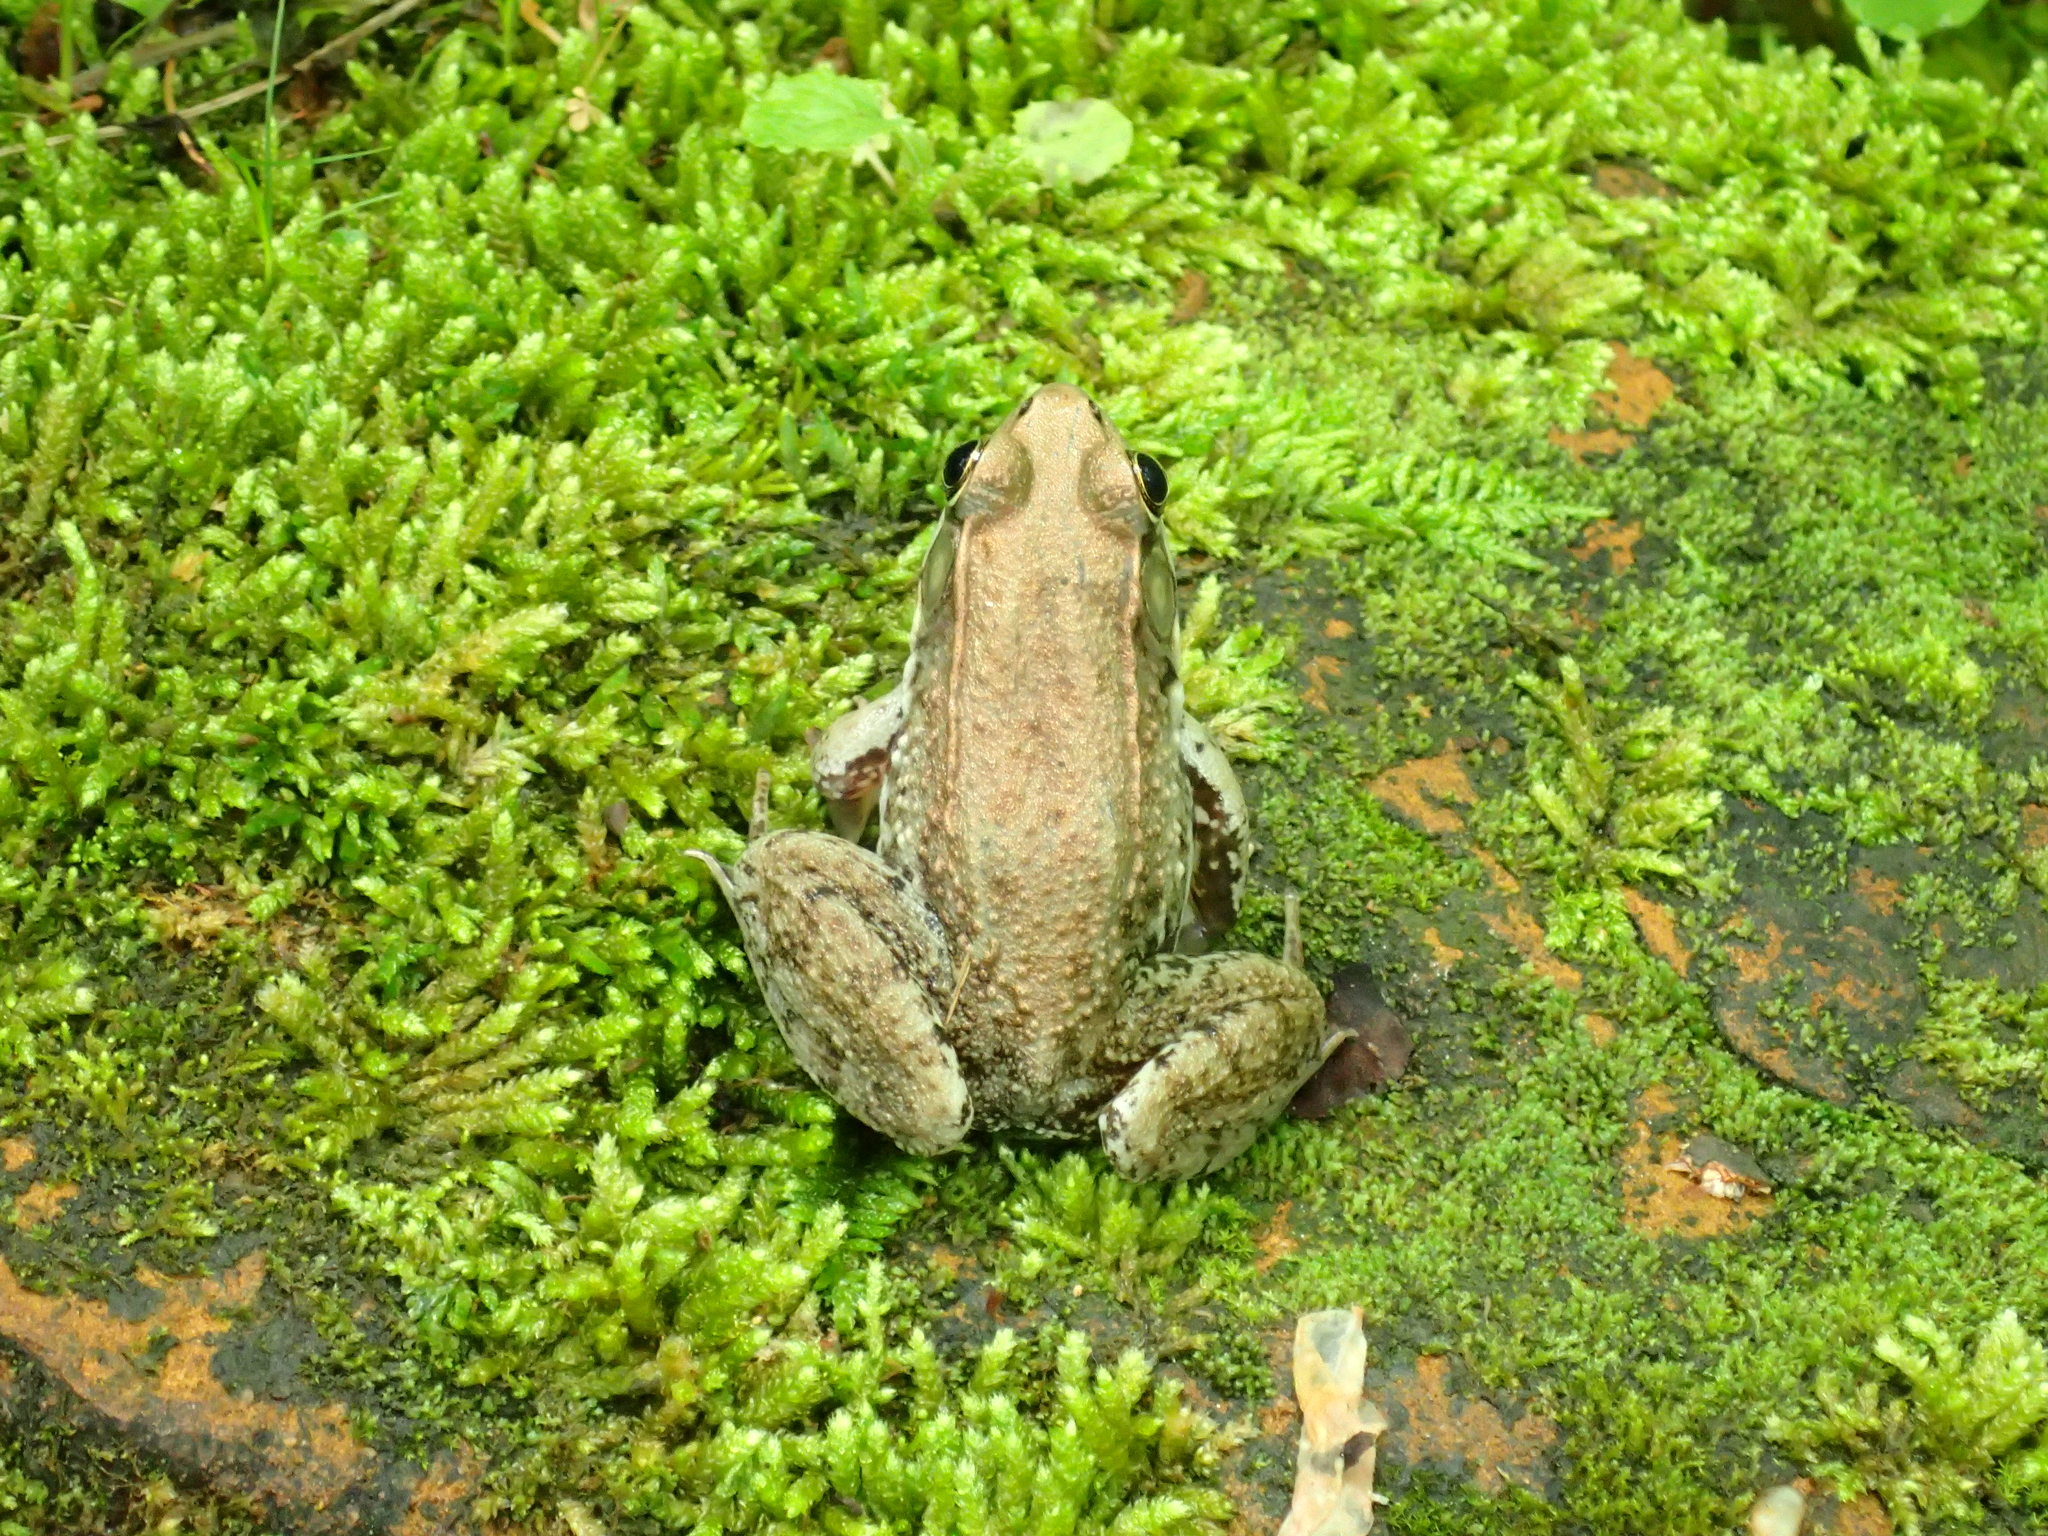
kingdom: Animalia
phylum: Chordata
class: Amphibia
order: Anura
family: Ranidae
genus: Lithobates
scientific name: Lithobates clamitans
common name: Green frog
